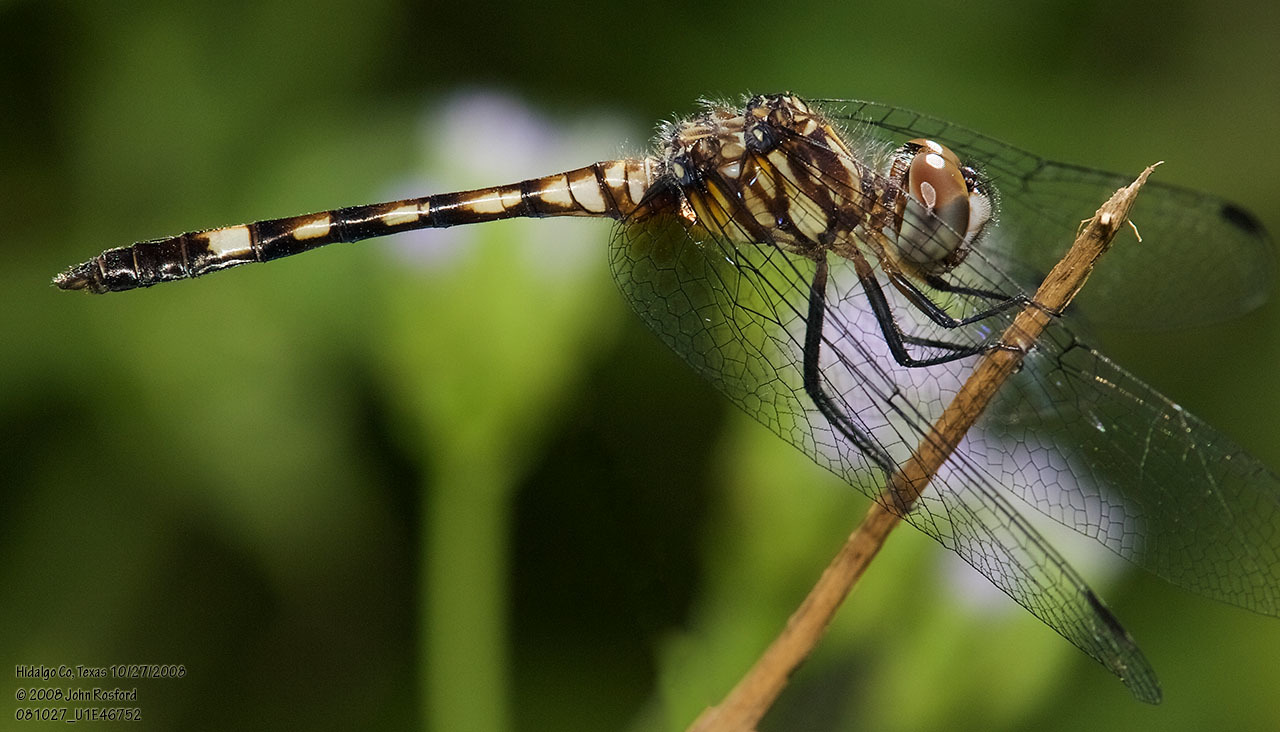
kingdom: Animalia
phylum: Arthropoda
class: Insecta
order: Odonata
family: Libellulidae
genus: Micrathyria
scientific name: Micrathyria hagenii
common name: Thornbush dasher
